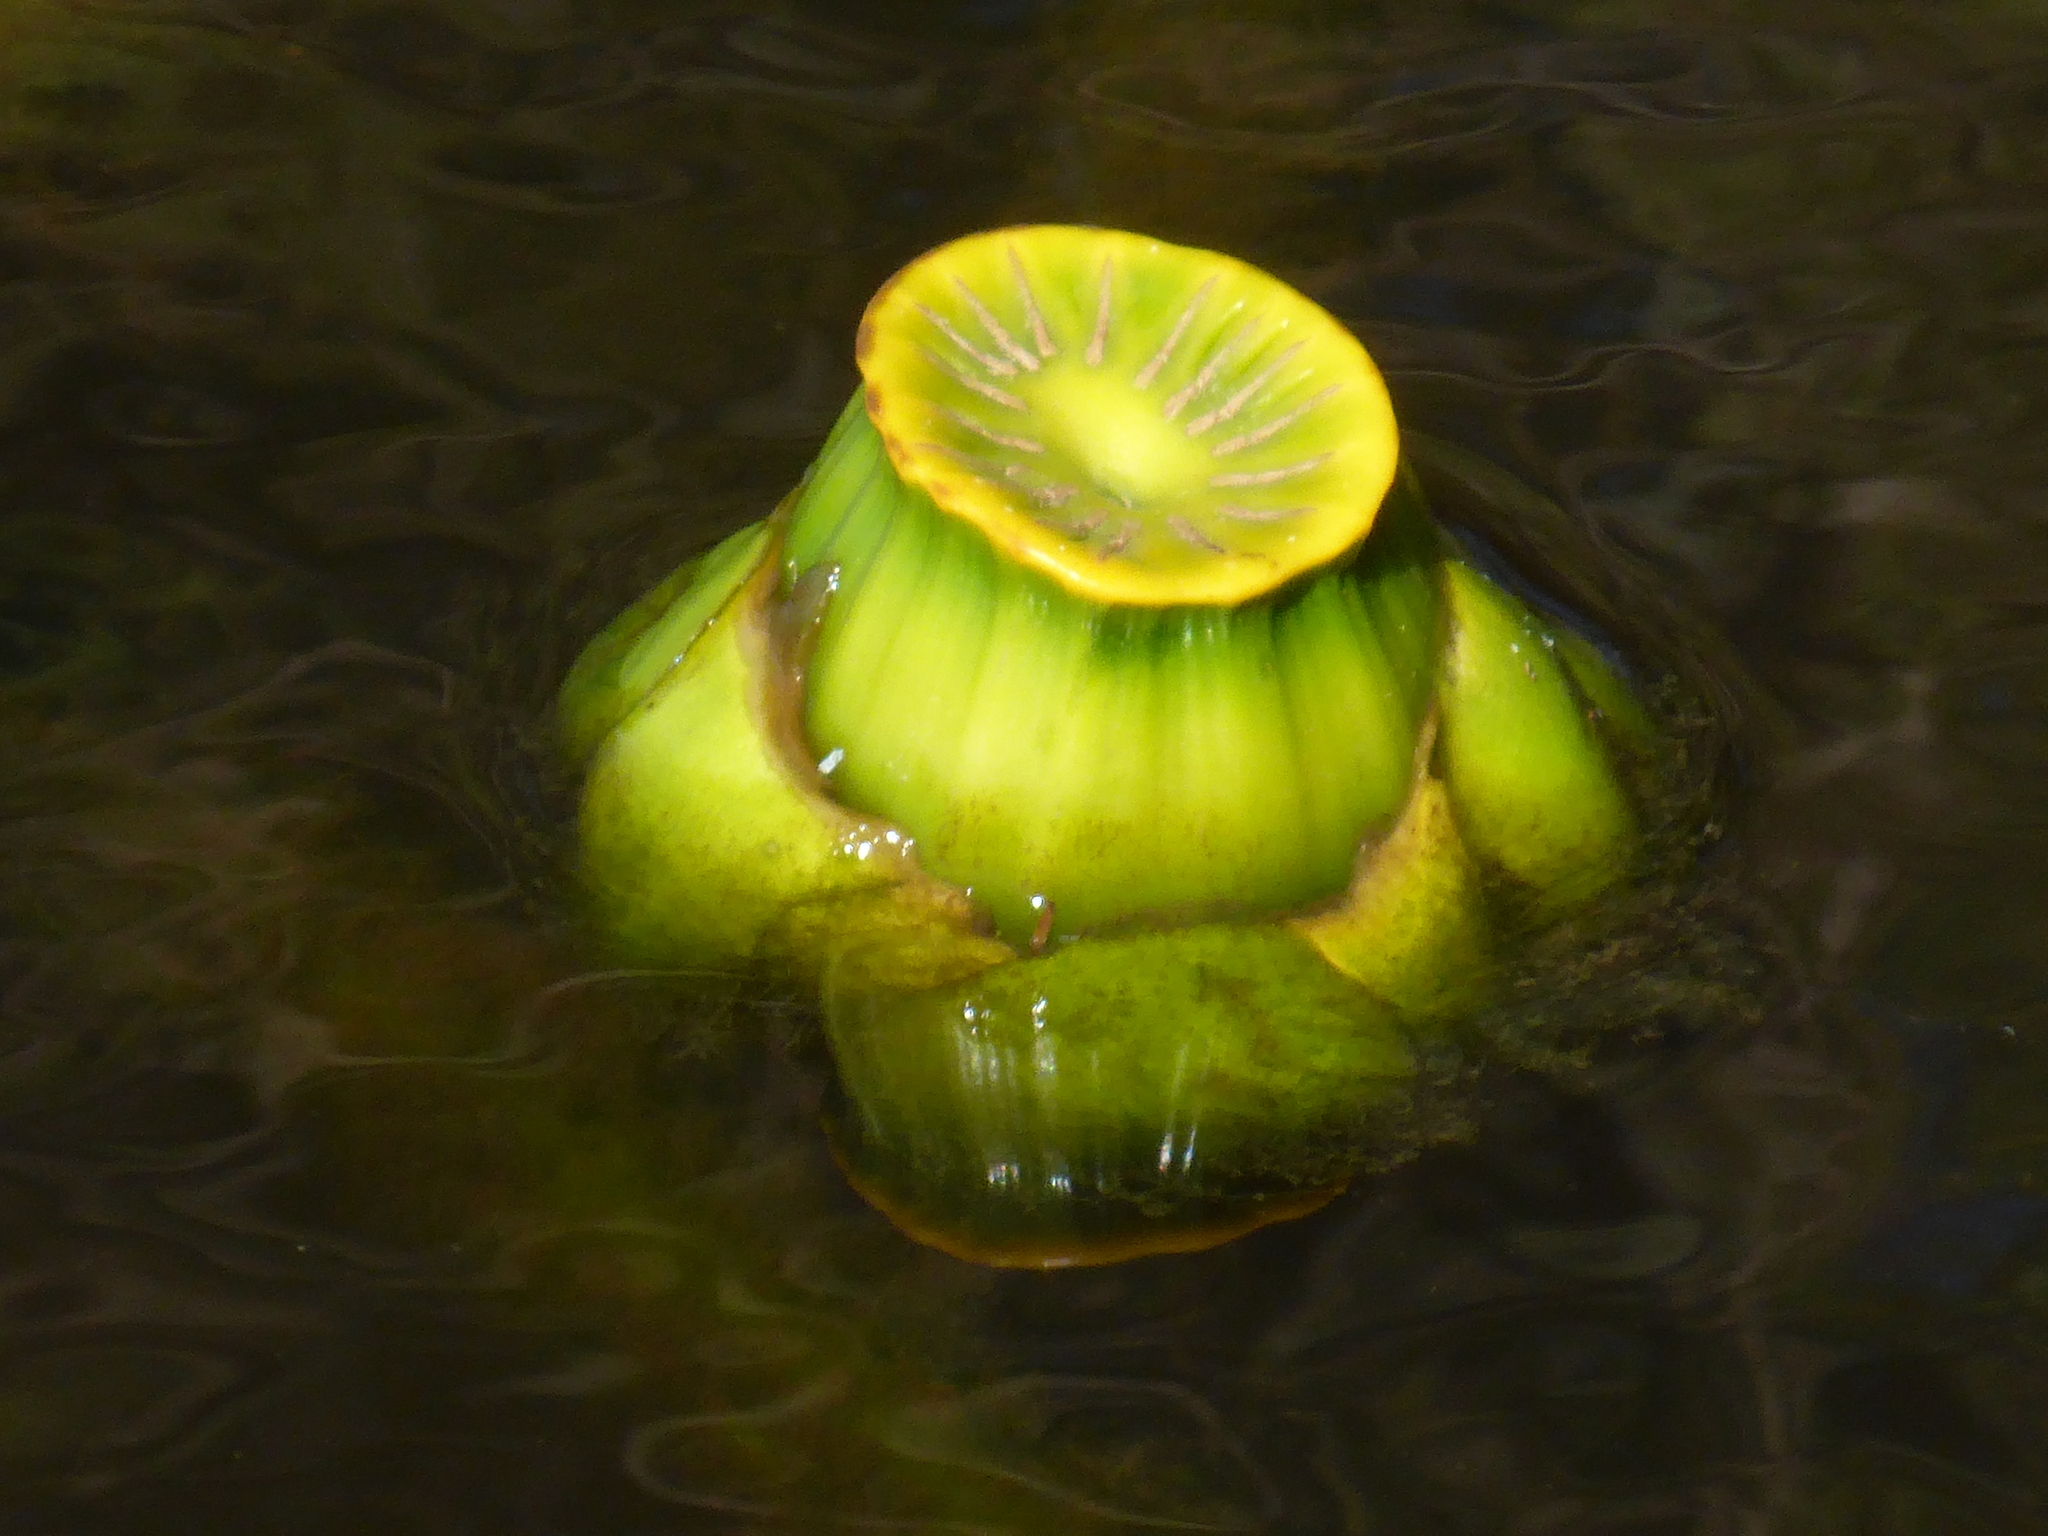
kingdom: Plantae
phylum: Tracheophyta
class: Magnoliopsida
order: Nymphaeales
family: Nymphaeaceae
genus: Nuphar
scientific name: Nuphar advena
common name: Spatter-dock
